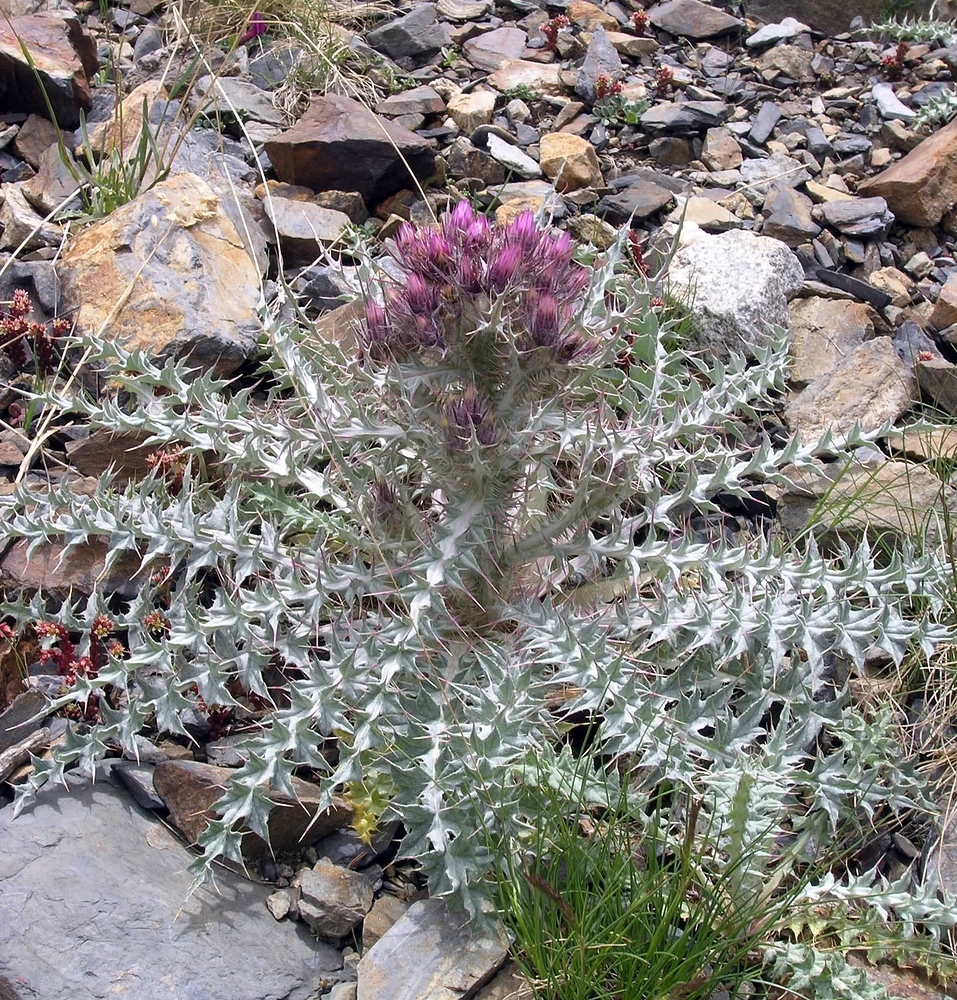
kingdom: Plantae
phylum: Tracheophyta
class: Magnoliopsida
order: Asterales
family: Asteraceae
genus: Carduus
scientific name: Carduus carlinoides
